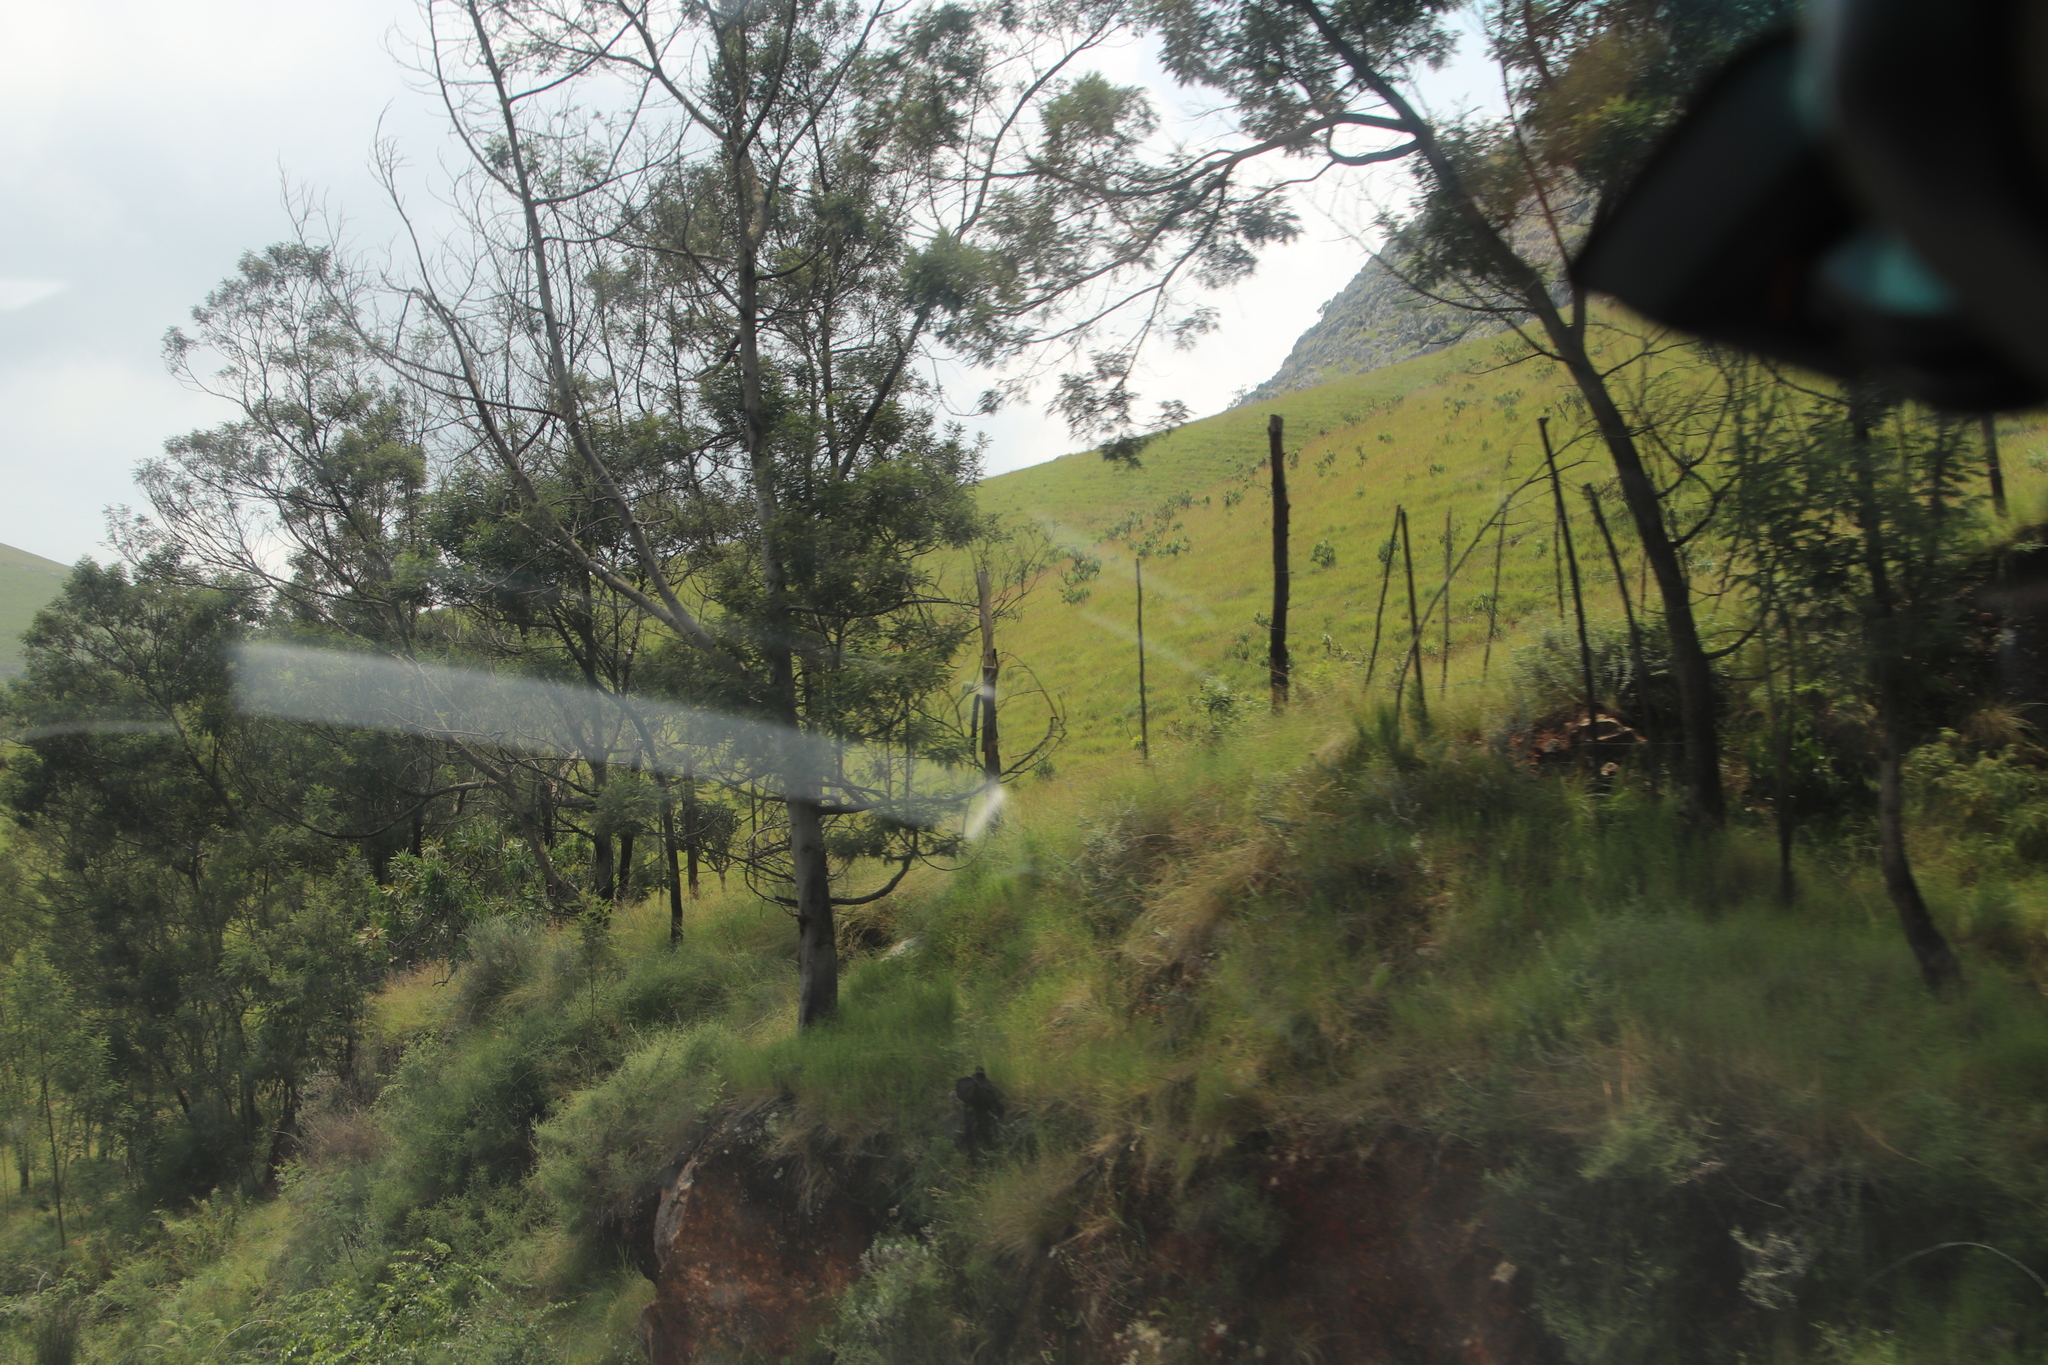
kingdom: Plantae
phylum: Tracheophyta
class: Magnoliopsida
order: Fabales
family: Fabaceae
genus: Acacia
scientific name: Acacia mearnsii
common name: Black wattle
